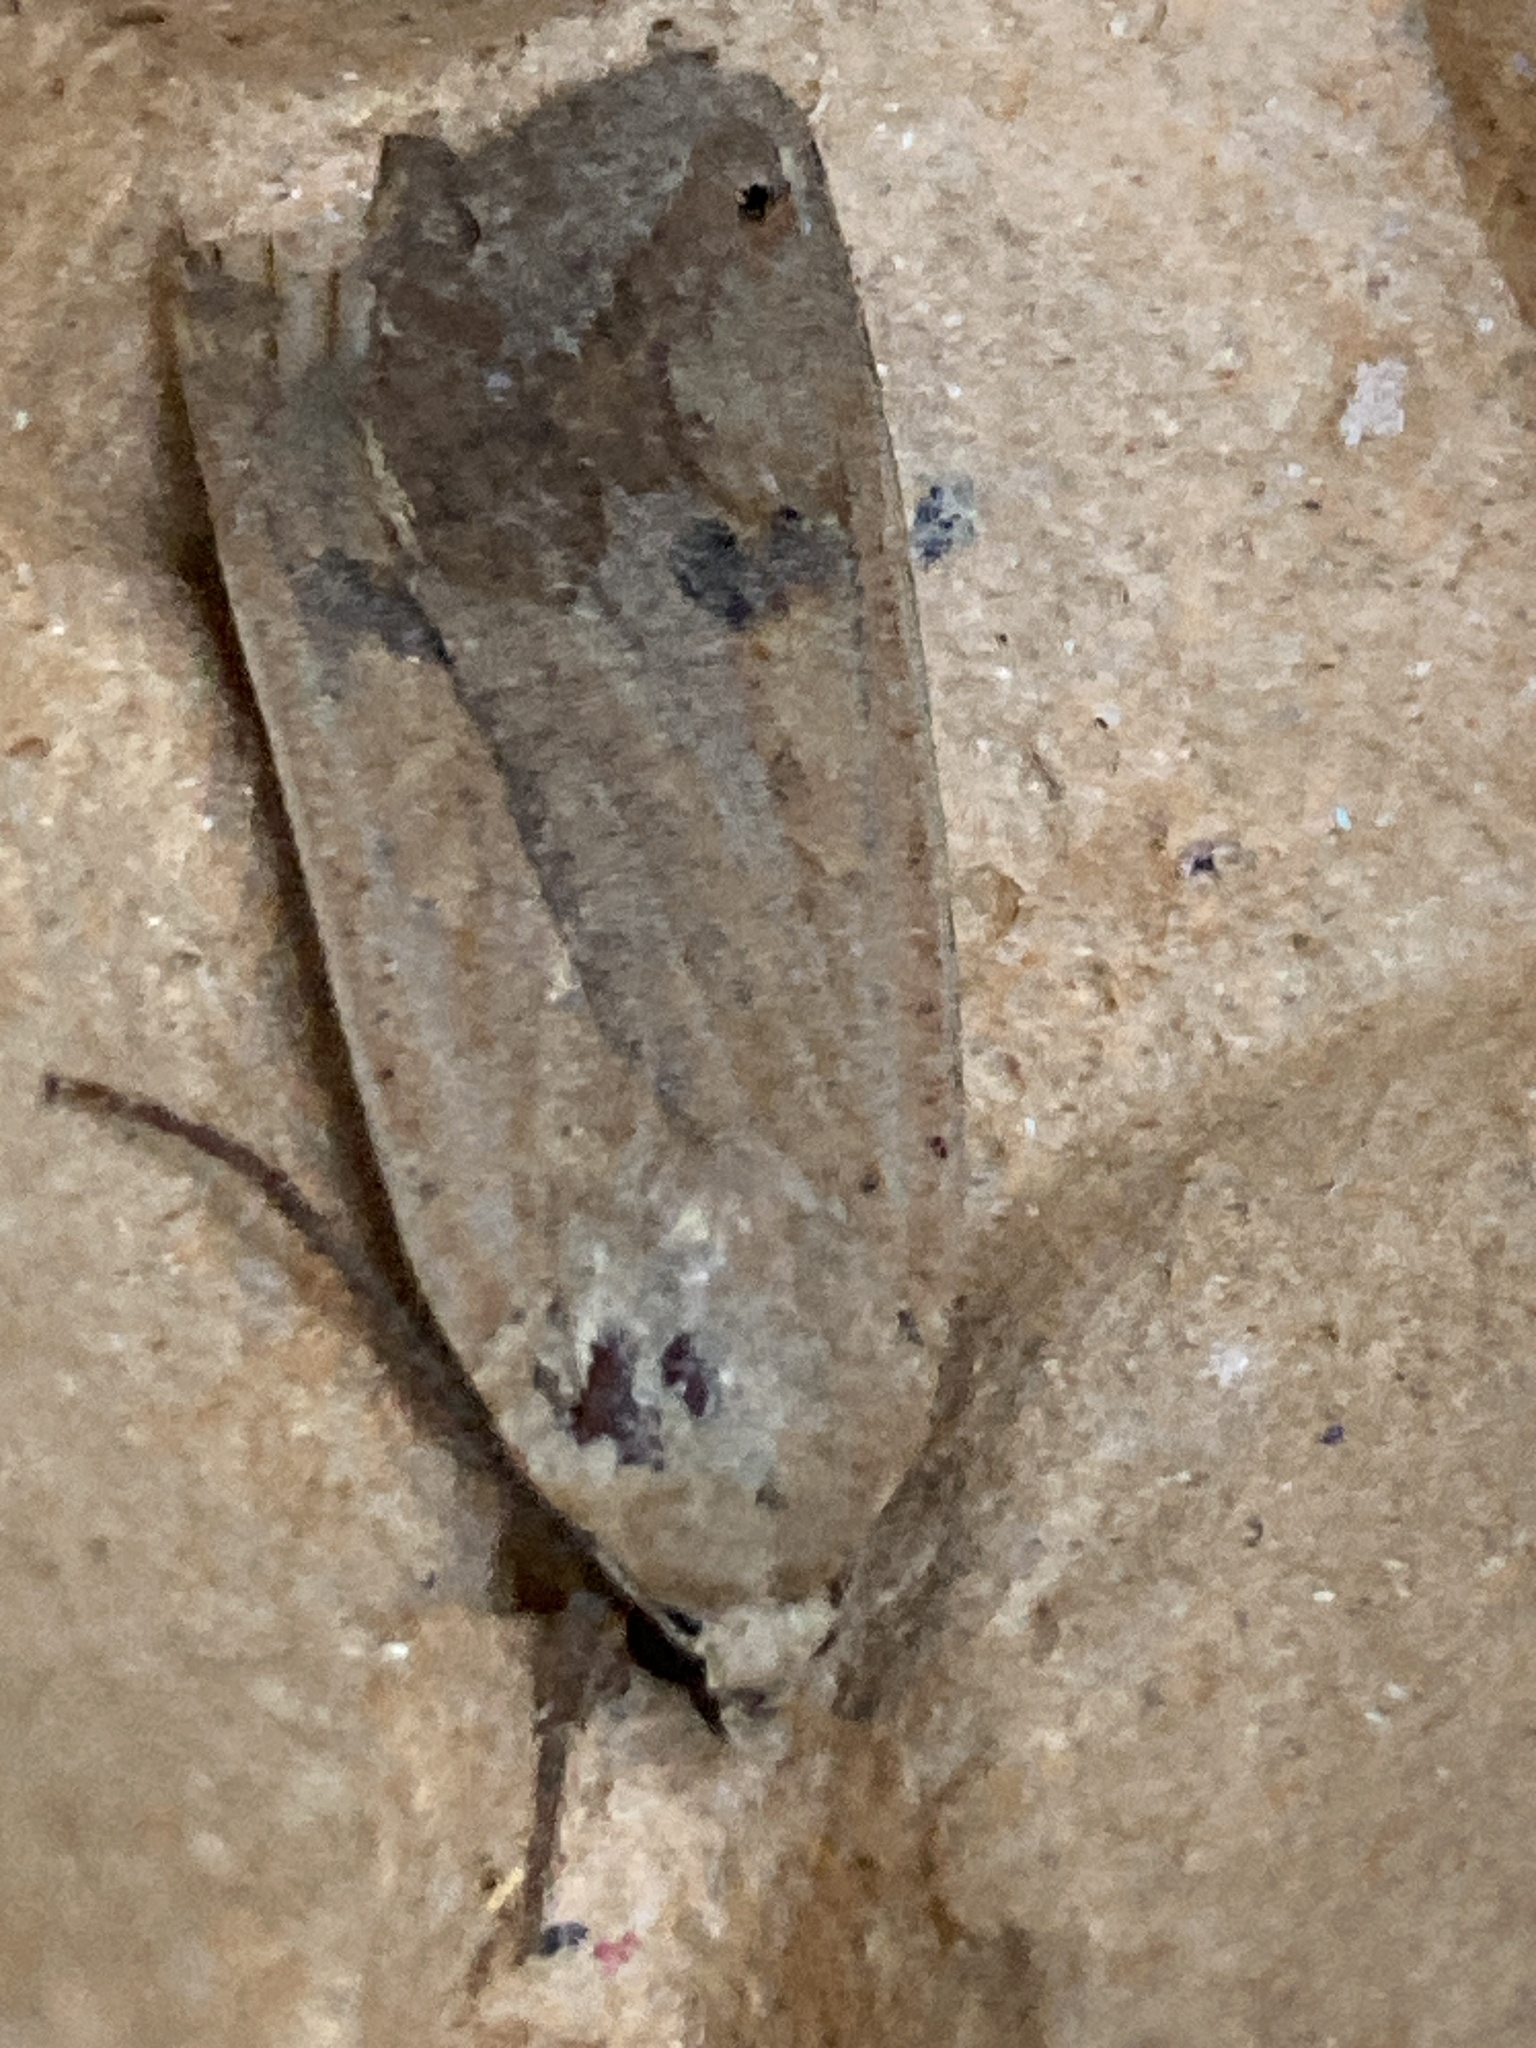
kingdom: Animalia
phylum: Arthropoda
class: Insecta
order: Lepidoptera
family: Noctuidae
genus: Noctua
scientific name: Noctua pronuba
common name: Large yellow underwing
